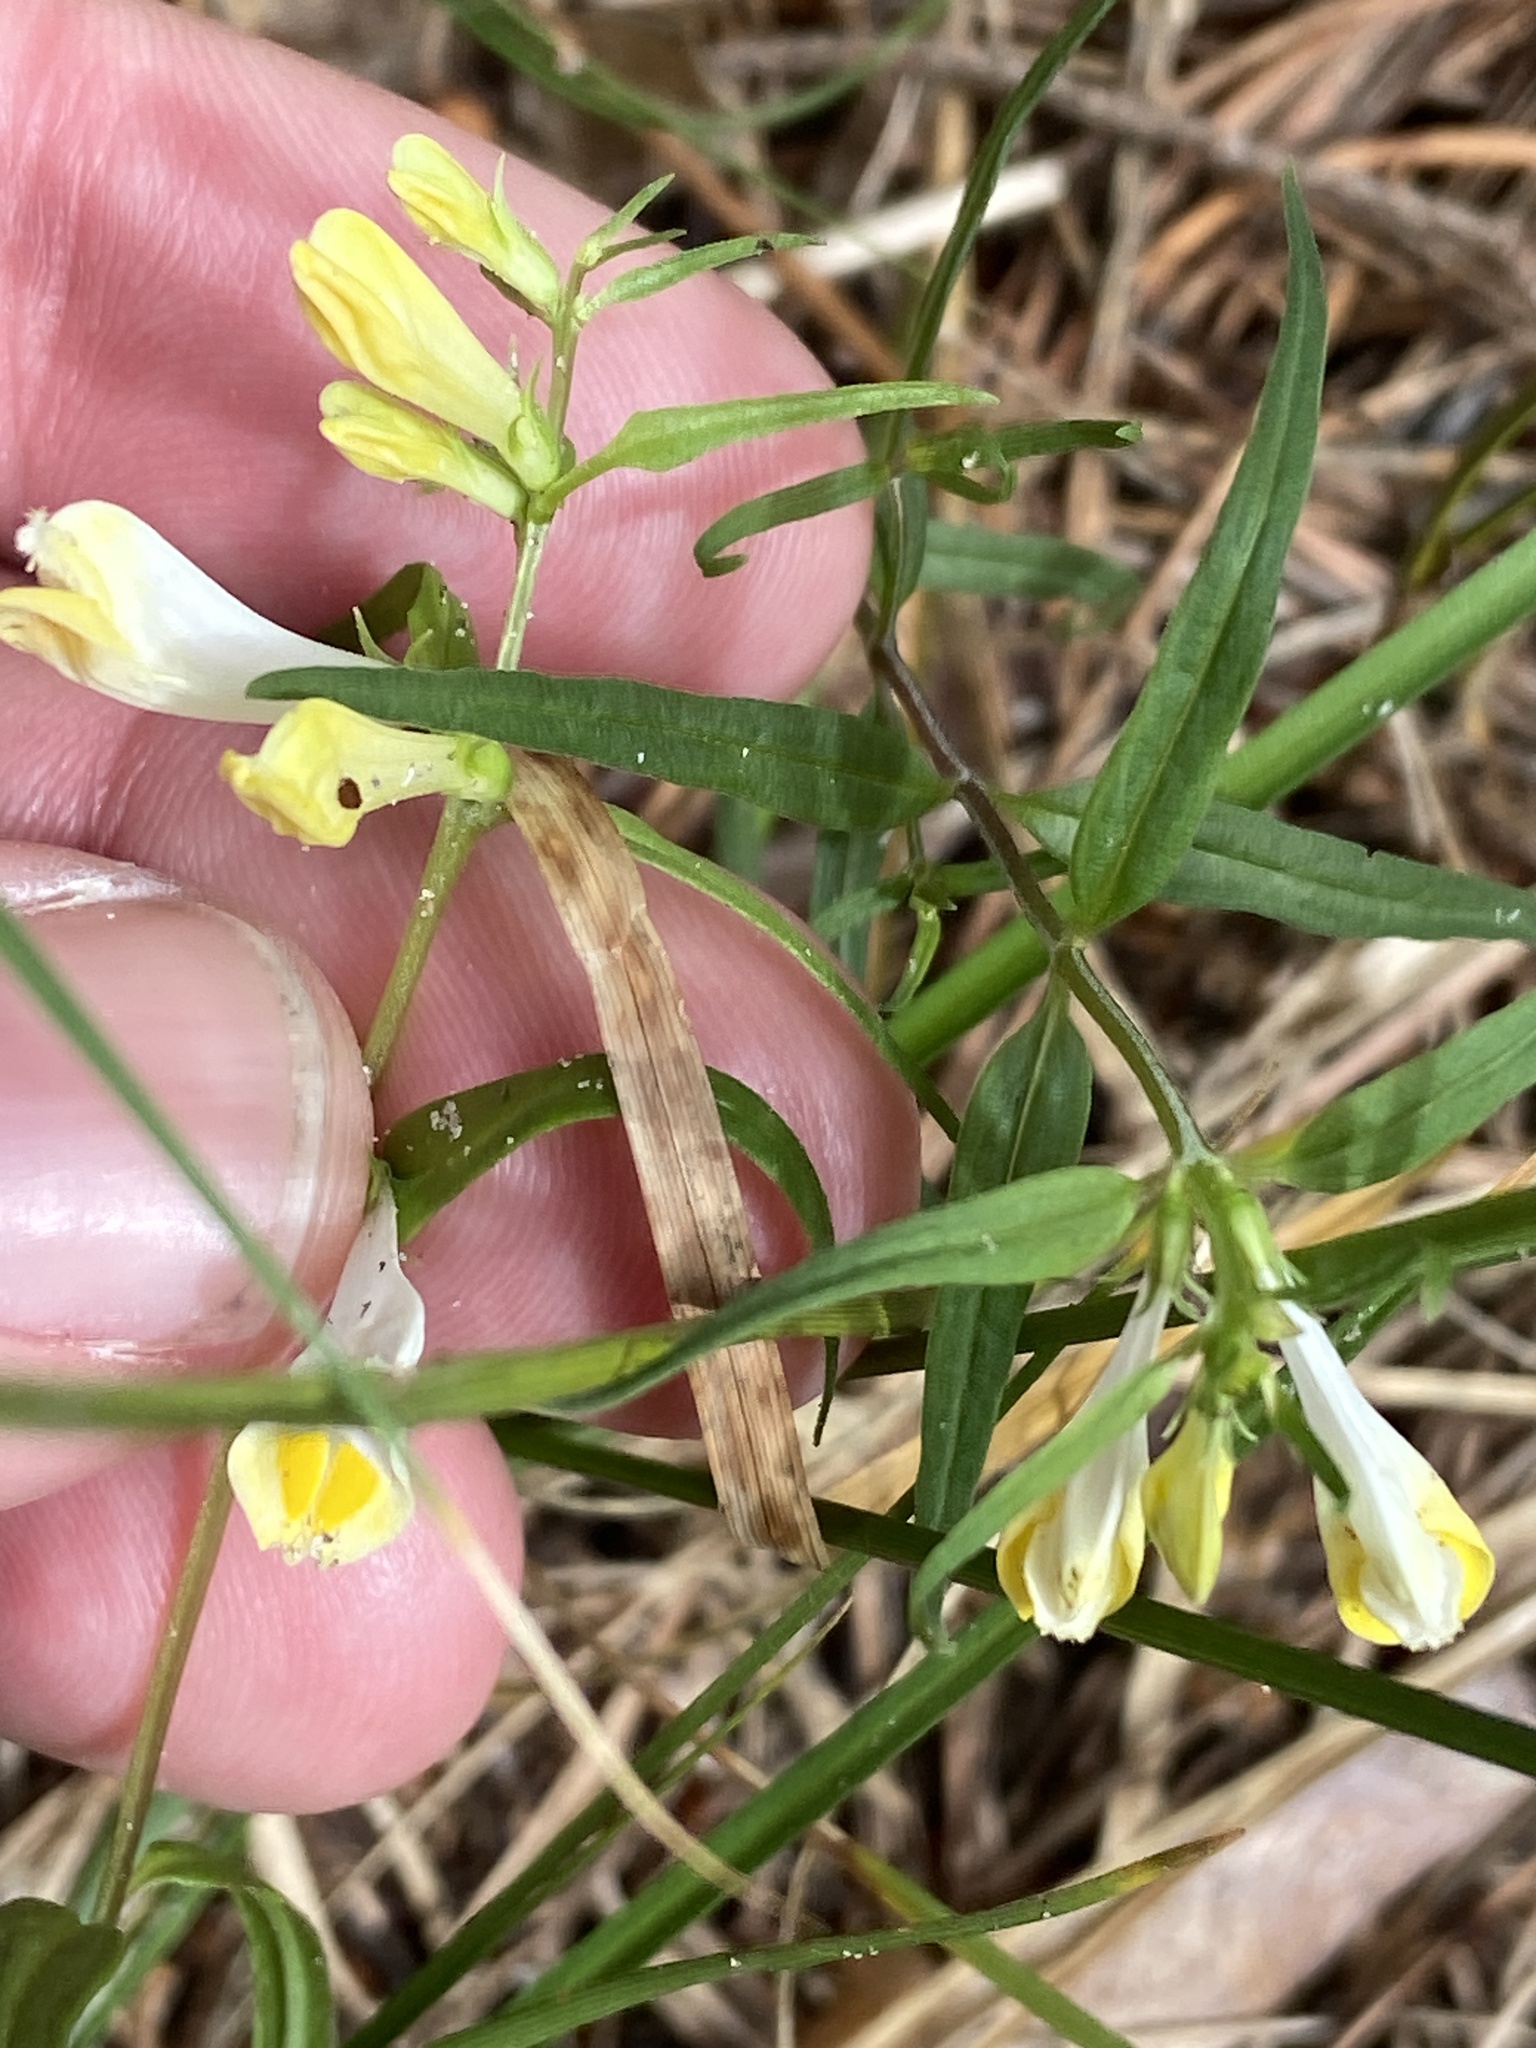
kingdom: Plantae
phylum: Tracheophyta
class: Magnoliopsida
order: Lamiales
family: Orobanchaceae
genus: Melampyrum
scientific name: Melampyrum pratense
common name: Common cow-wheat
